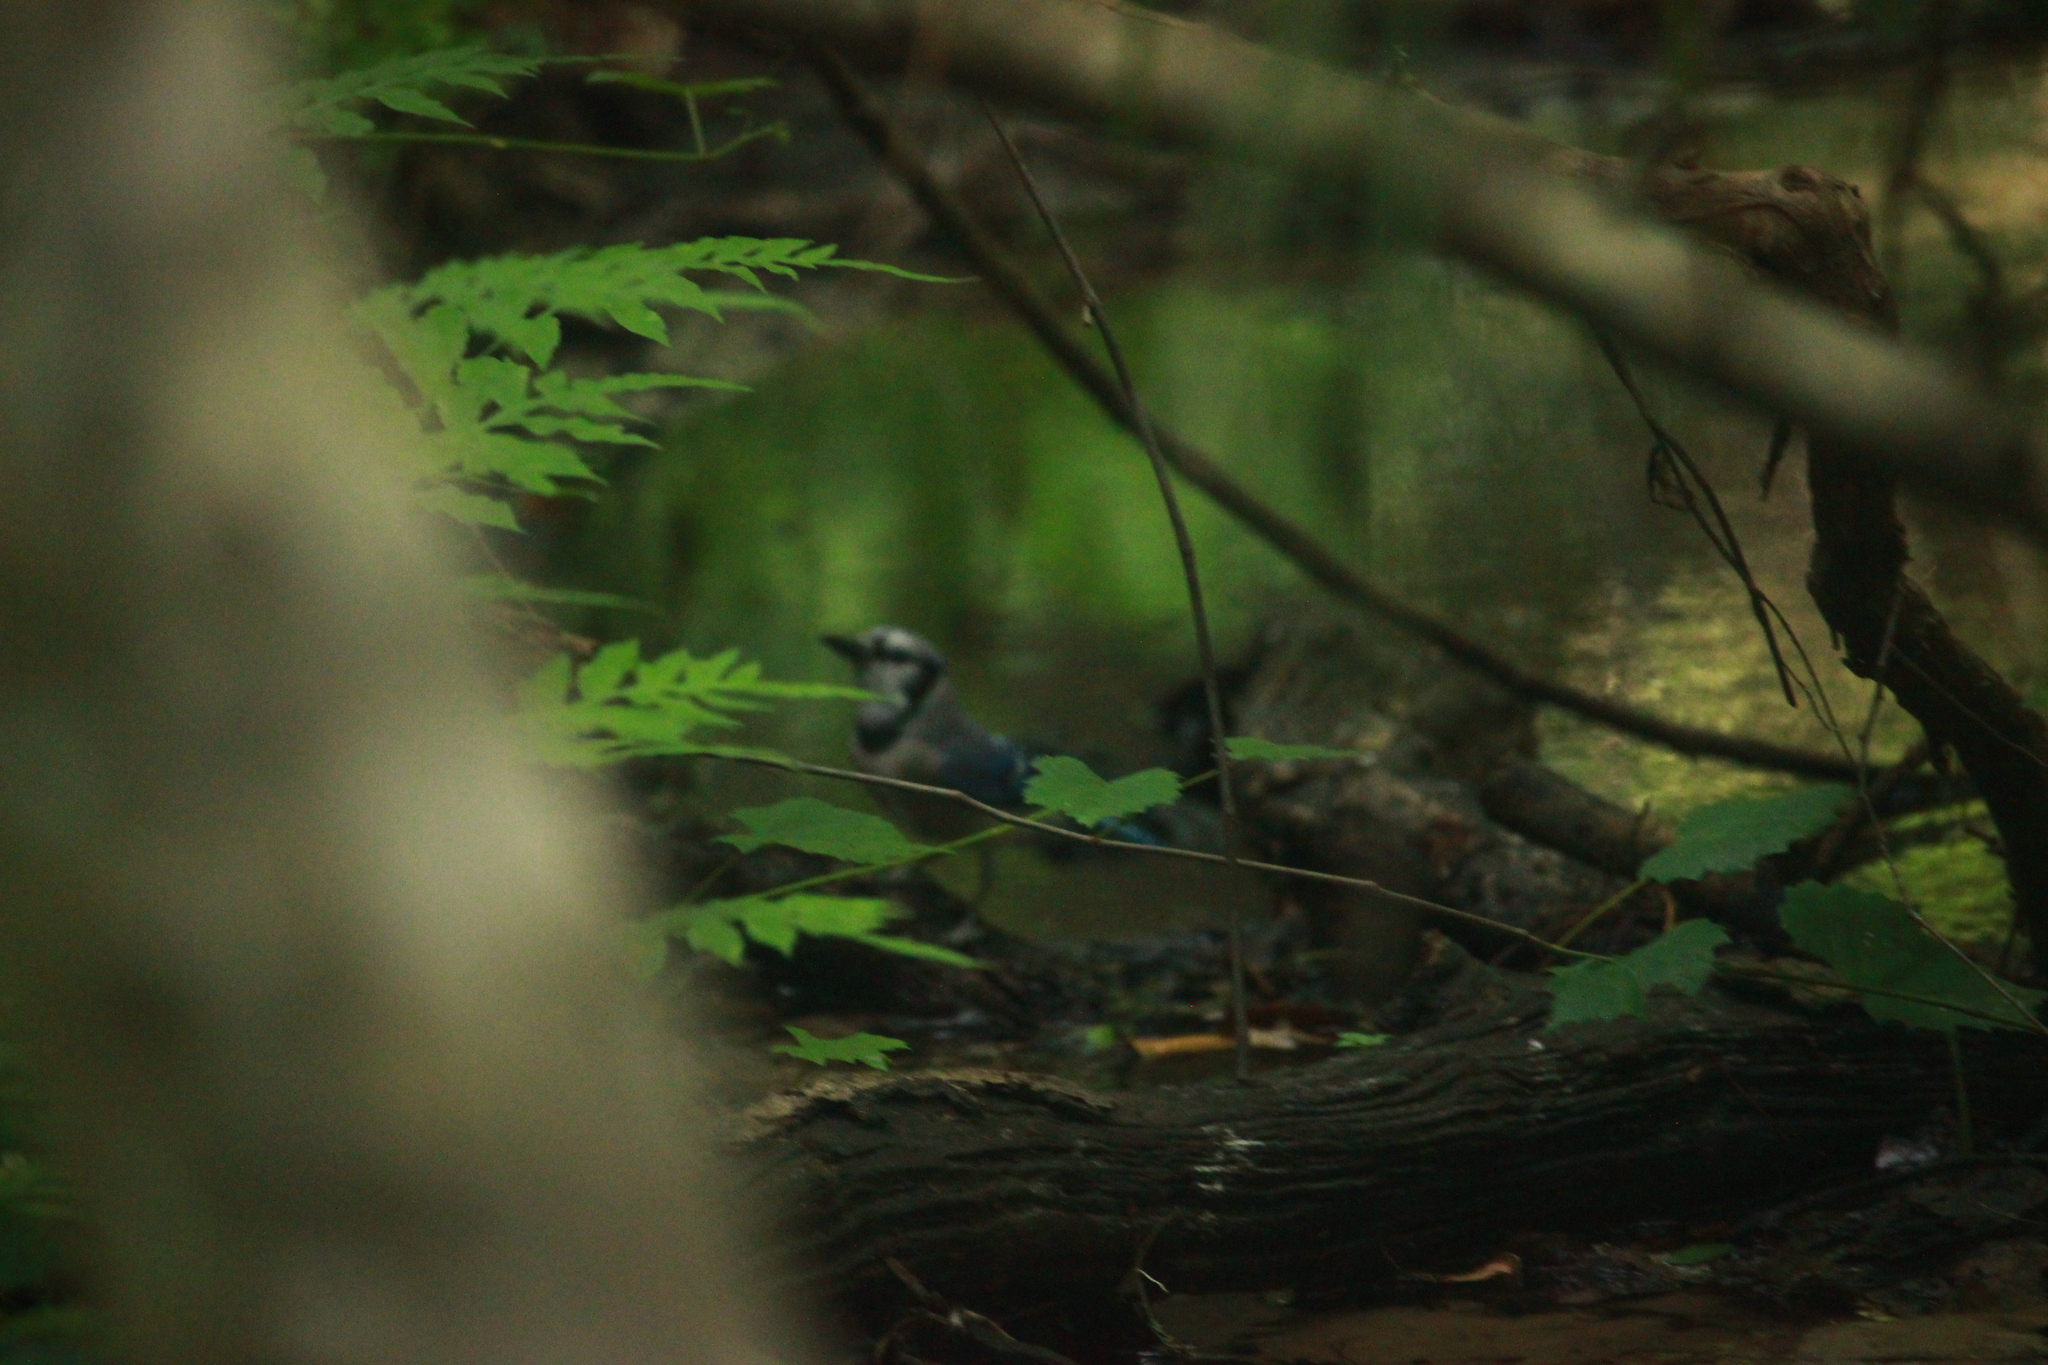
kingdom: Animalia
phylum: Chordata
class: Aves
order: Passeriformes
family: Corvidae
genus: Cyanocitta
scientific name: Cyanocitta cristata
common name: Blue jay
